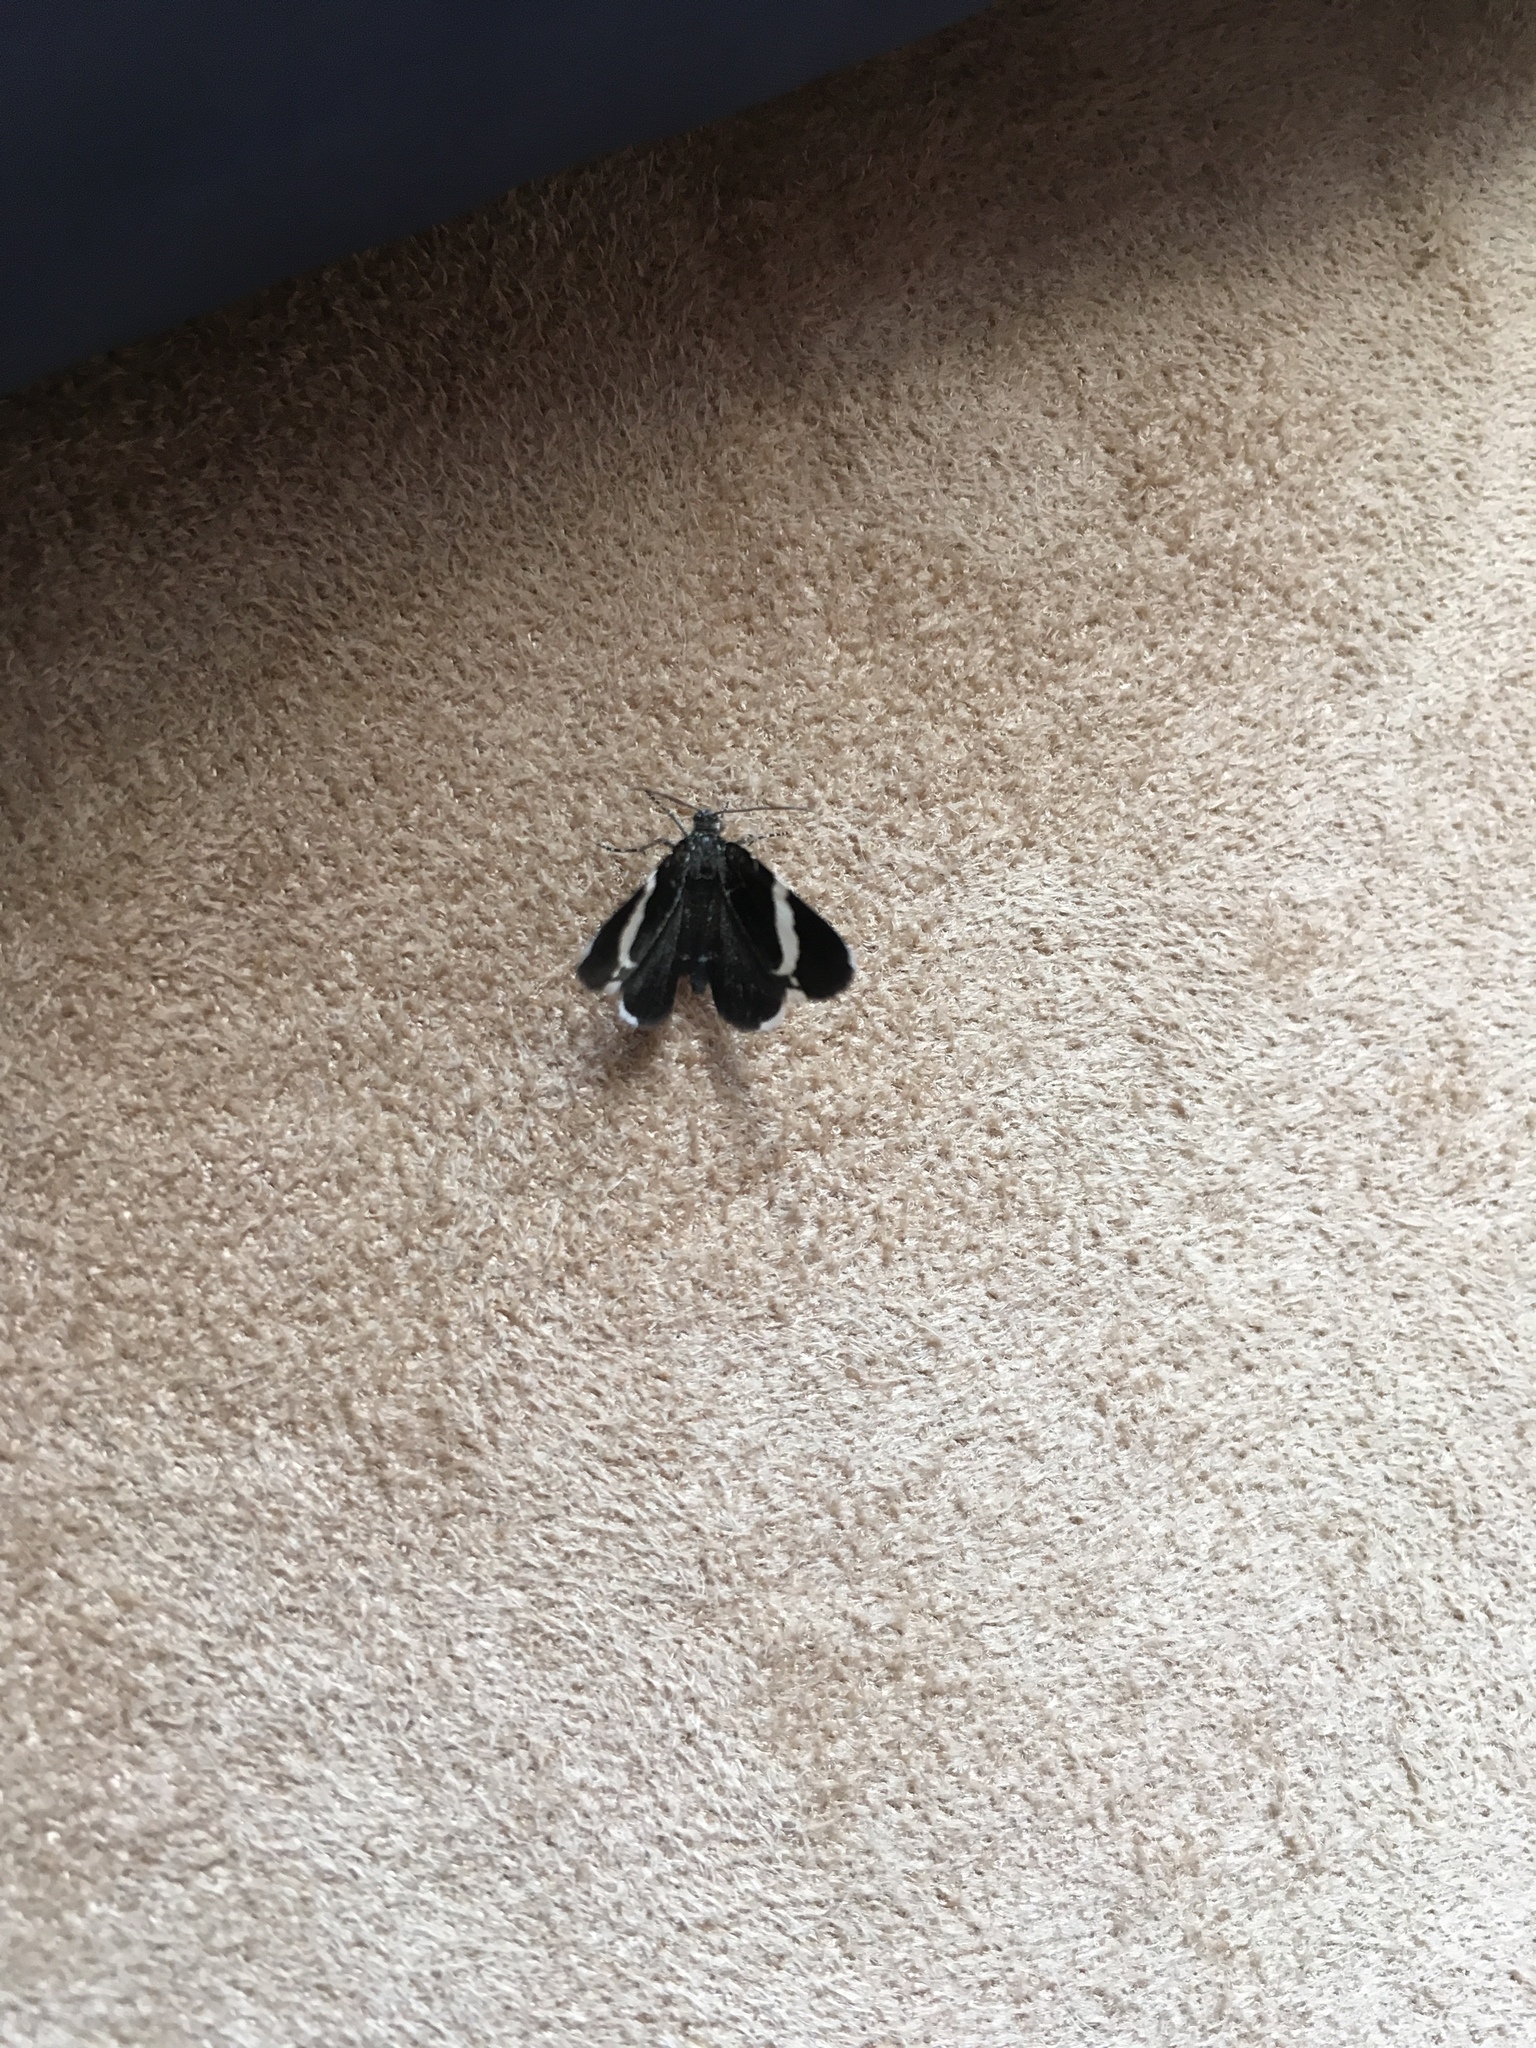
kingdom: Animalia
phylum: Arthropoda
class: Insecta
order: Lepidoptera
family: Geometridae
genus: Trichodezia
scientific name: Trichodezia albovittata
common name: White striped black
